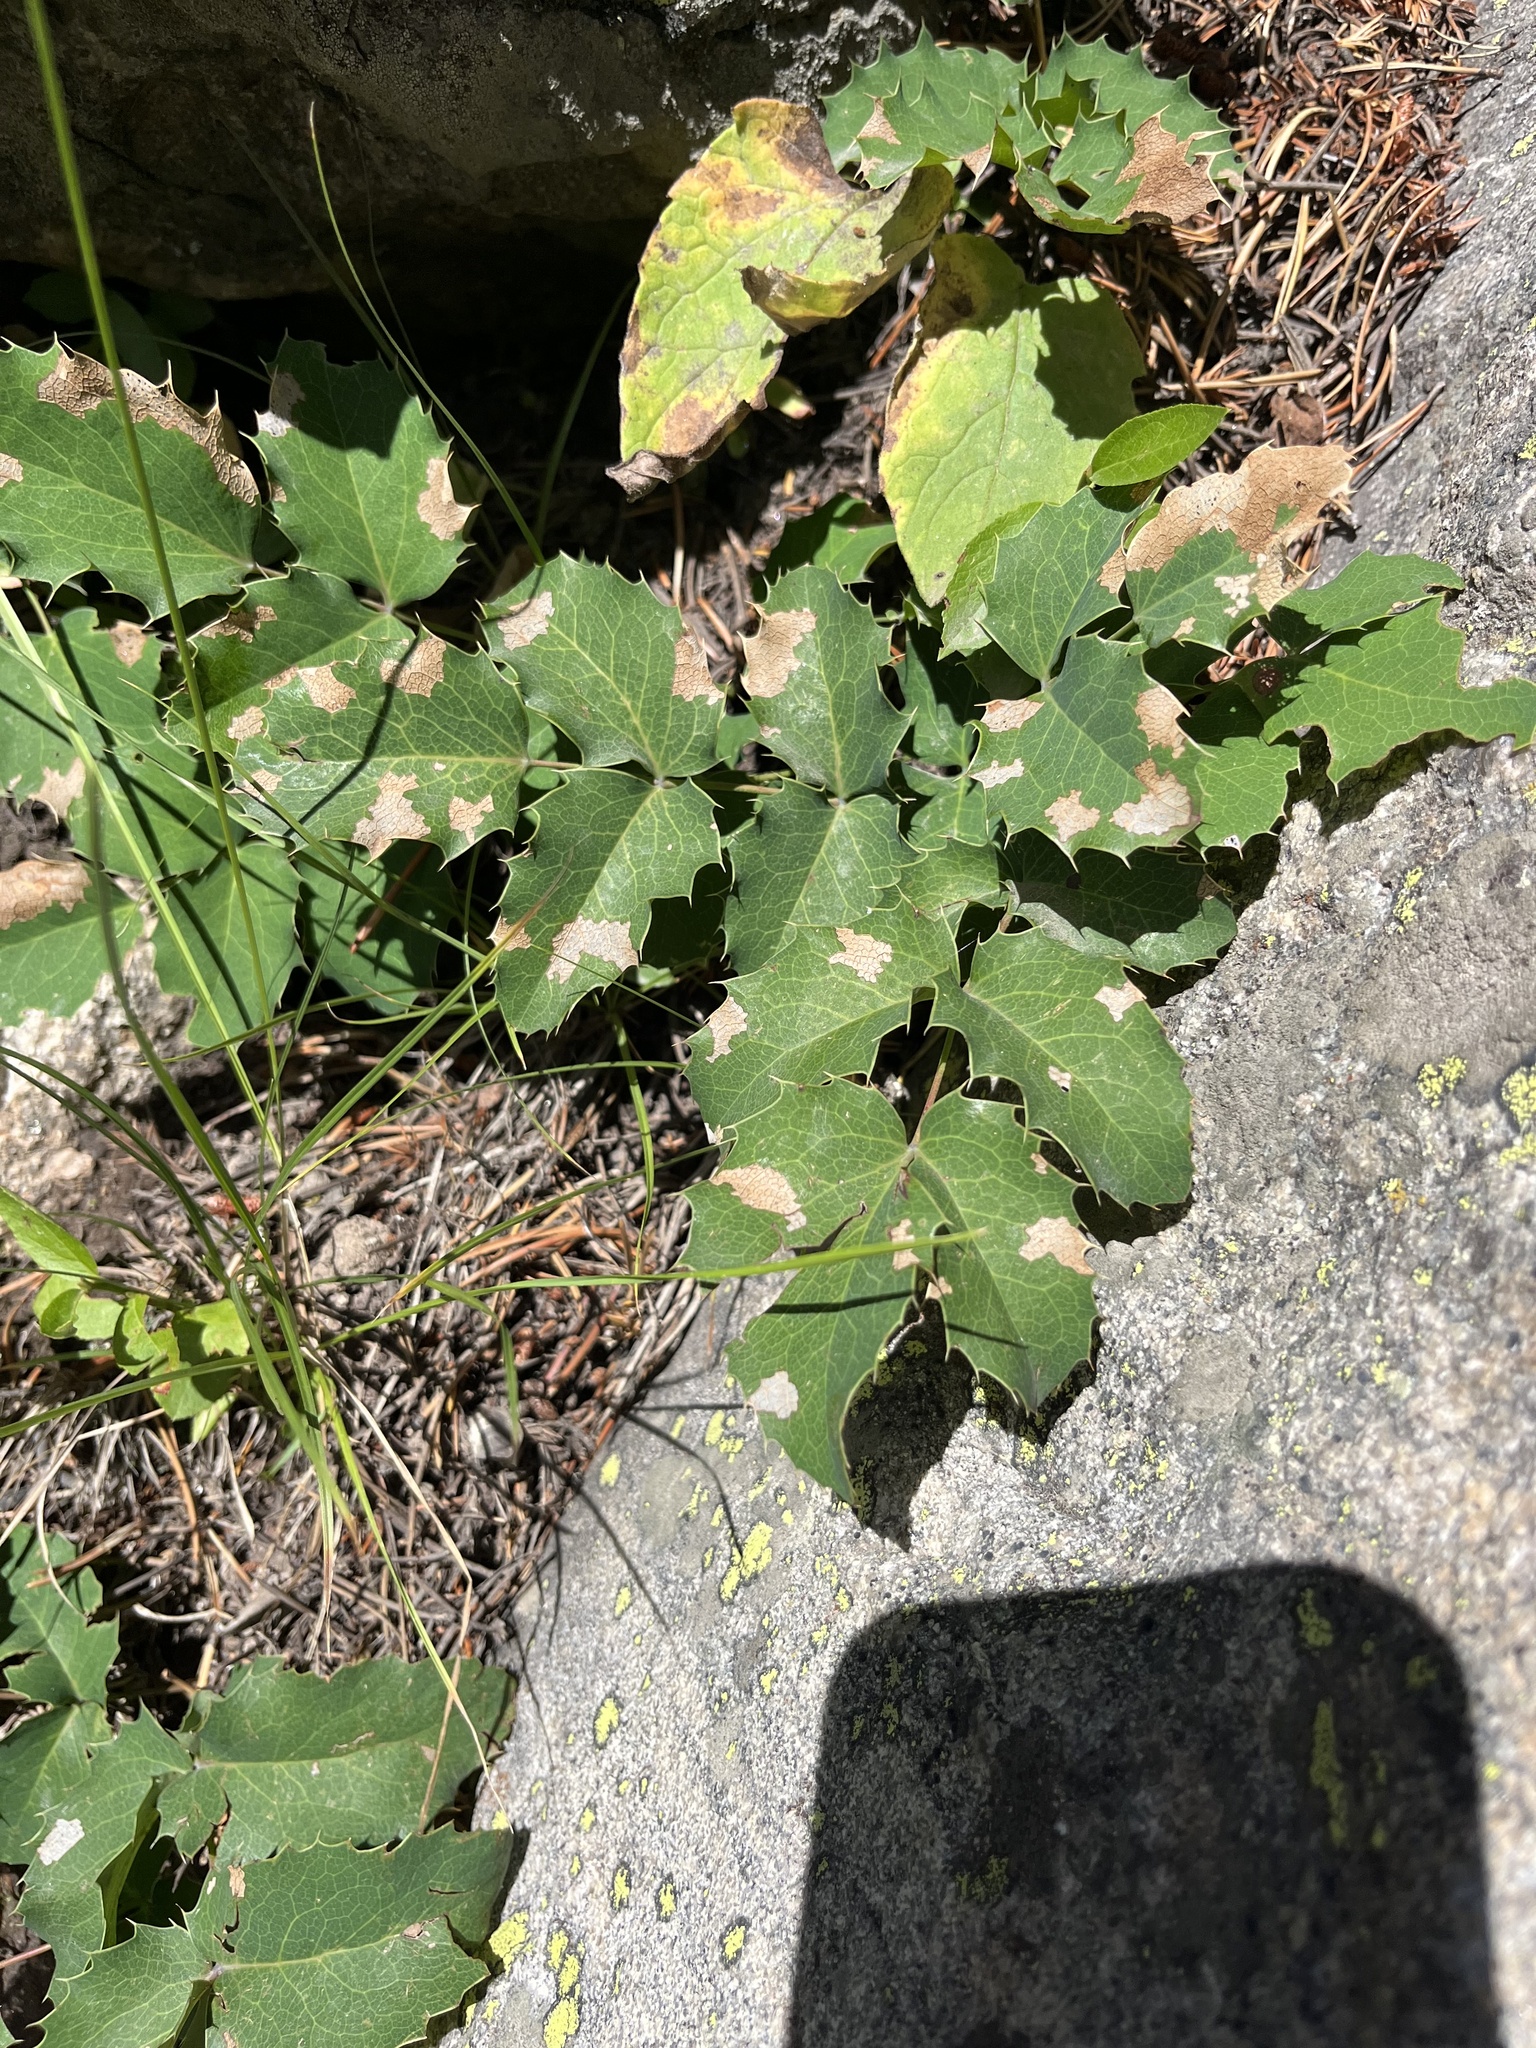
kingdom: Plantae
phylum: Tracheophyta
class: Magnoliopsida
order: Ranunculales
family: Berberidaceae
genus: Mahonia
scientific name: Mahonia repens
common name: Creeping oregon-grape
